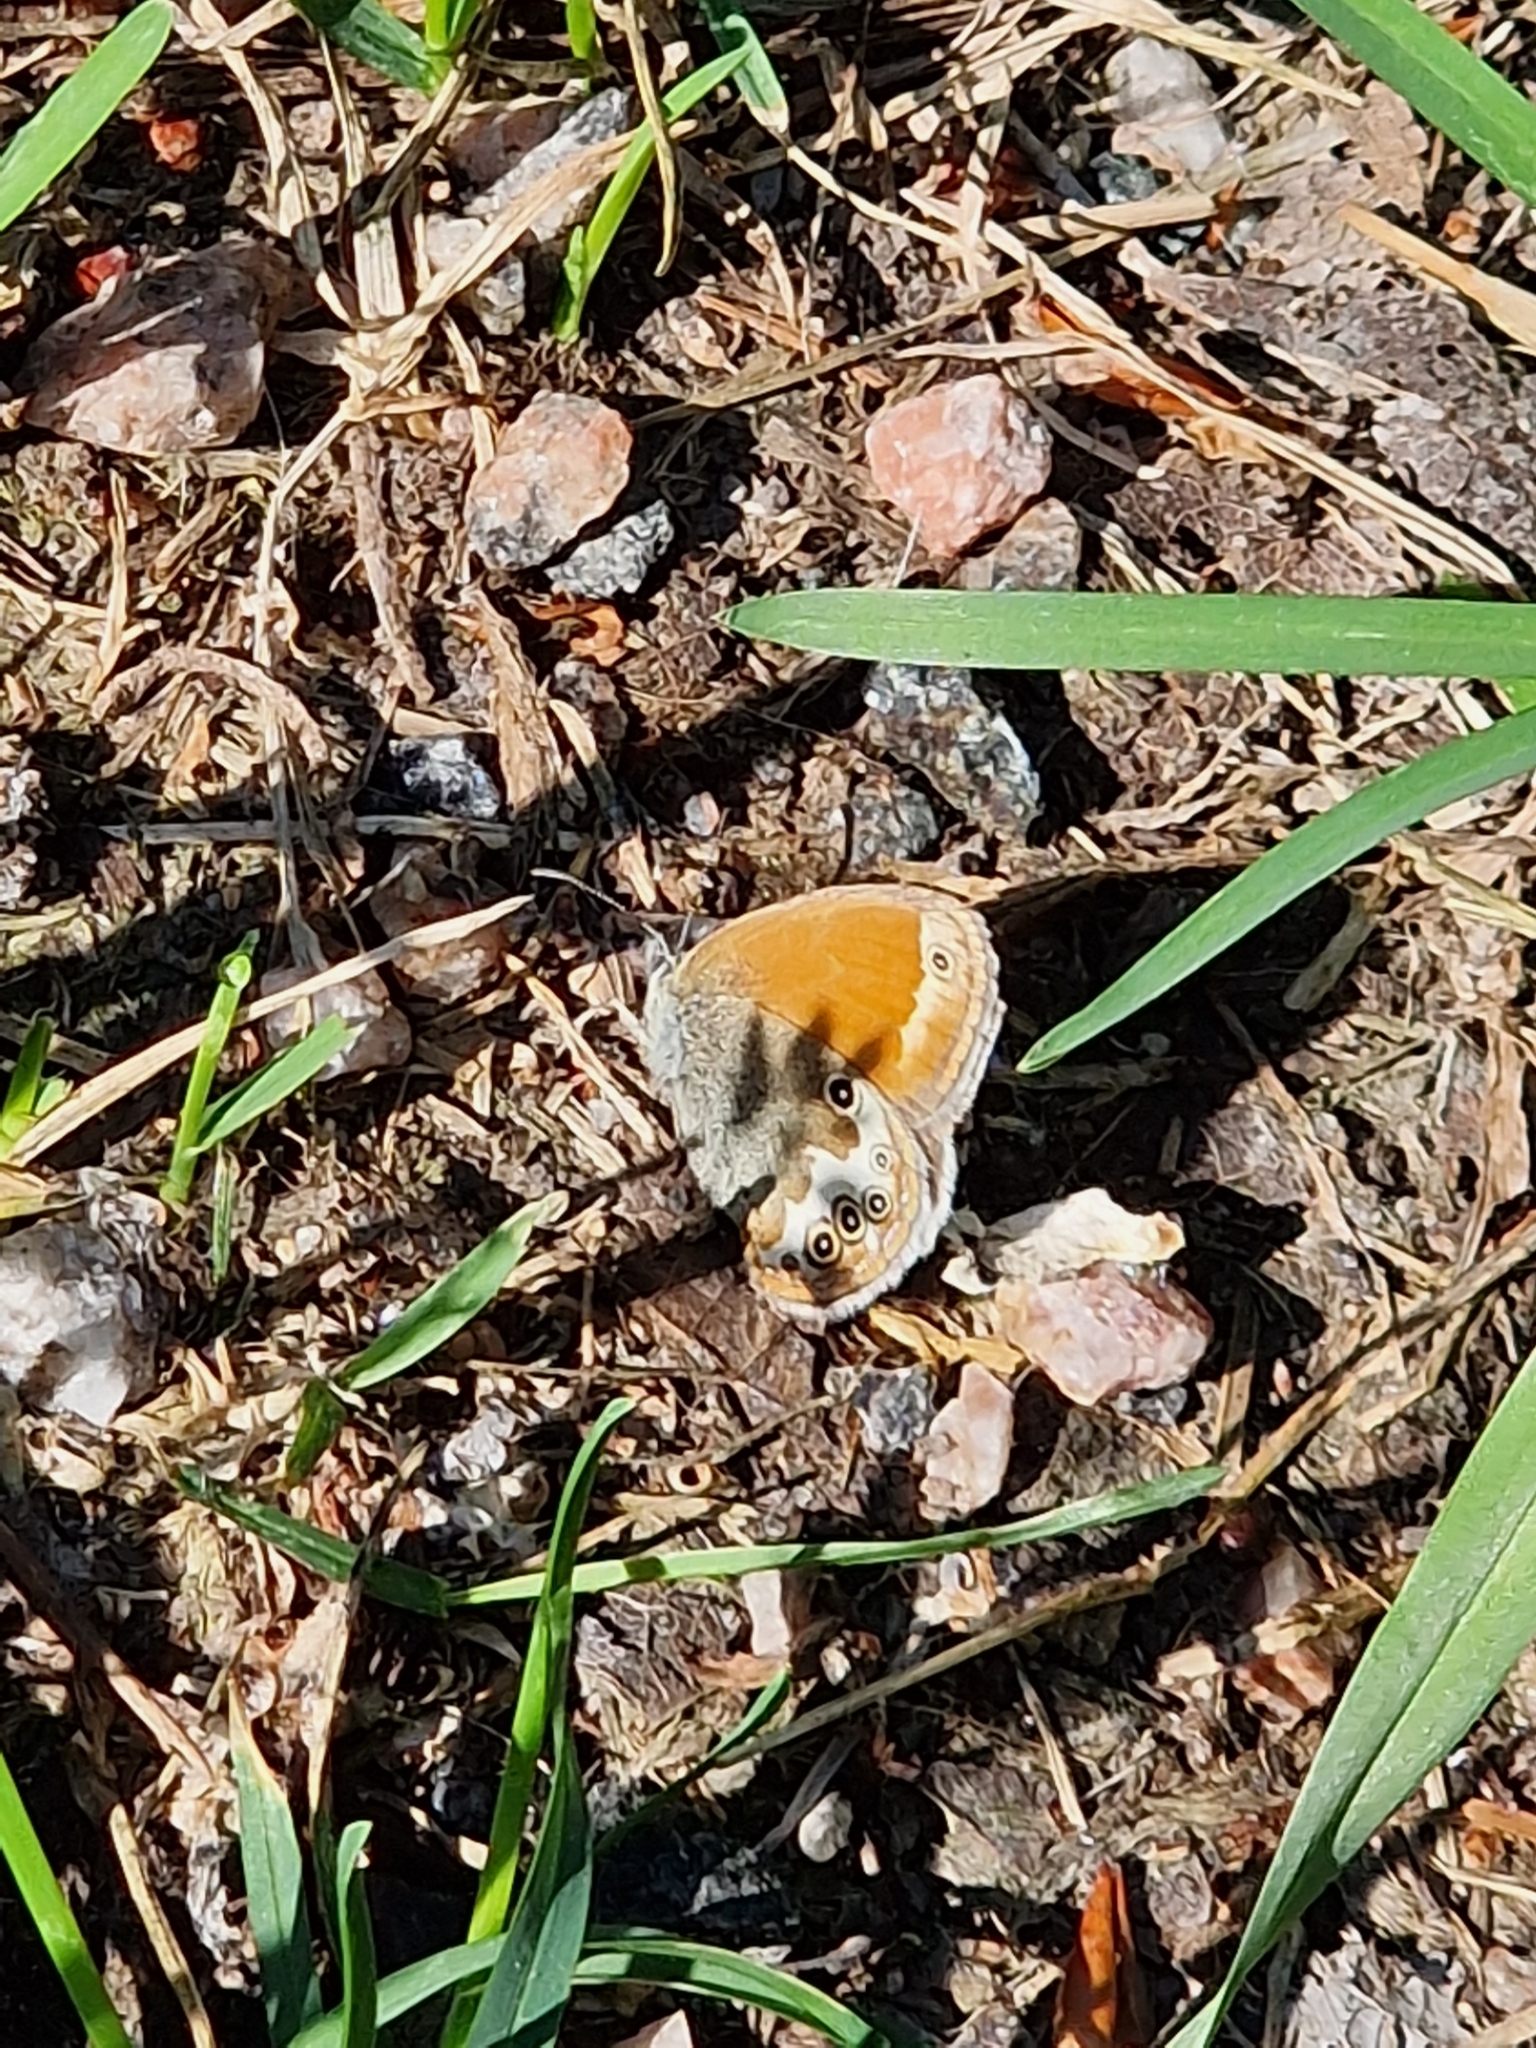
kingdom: Animalia
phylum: Arthropoda
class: Insecta
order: Lepidoptera
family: Nymphalidae
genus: Coenonympha
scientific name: Coenonympha arcania
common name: Pearly heath
